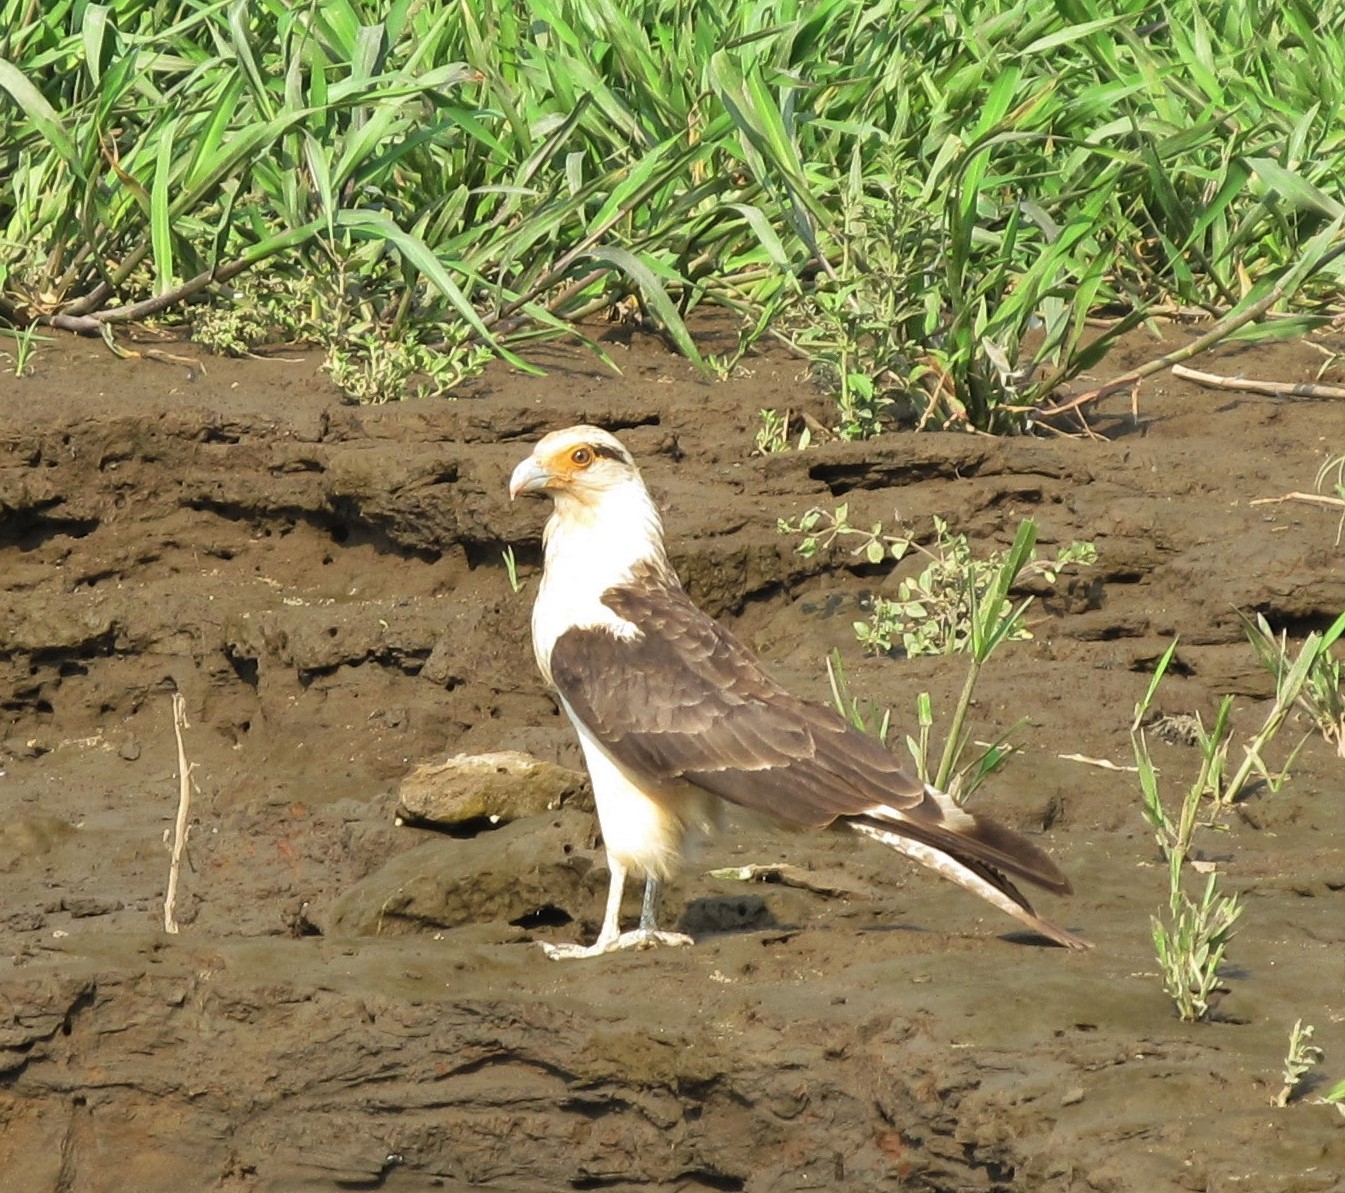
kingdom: Animalia
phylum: Chordata
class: Aves
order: Falconiformes
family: Falconidae
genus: Daptrius
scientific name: Daptrius
